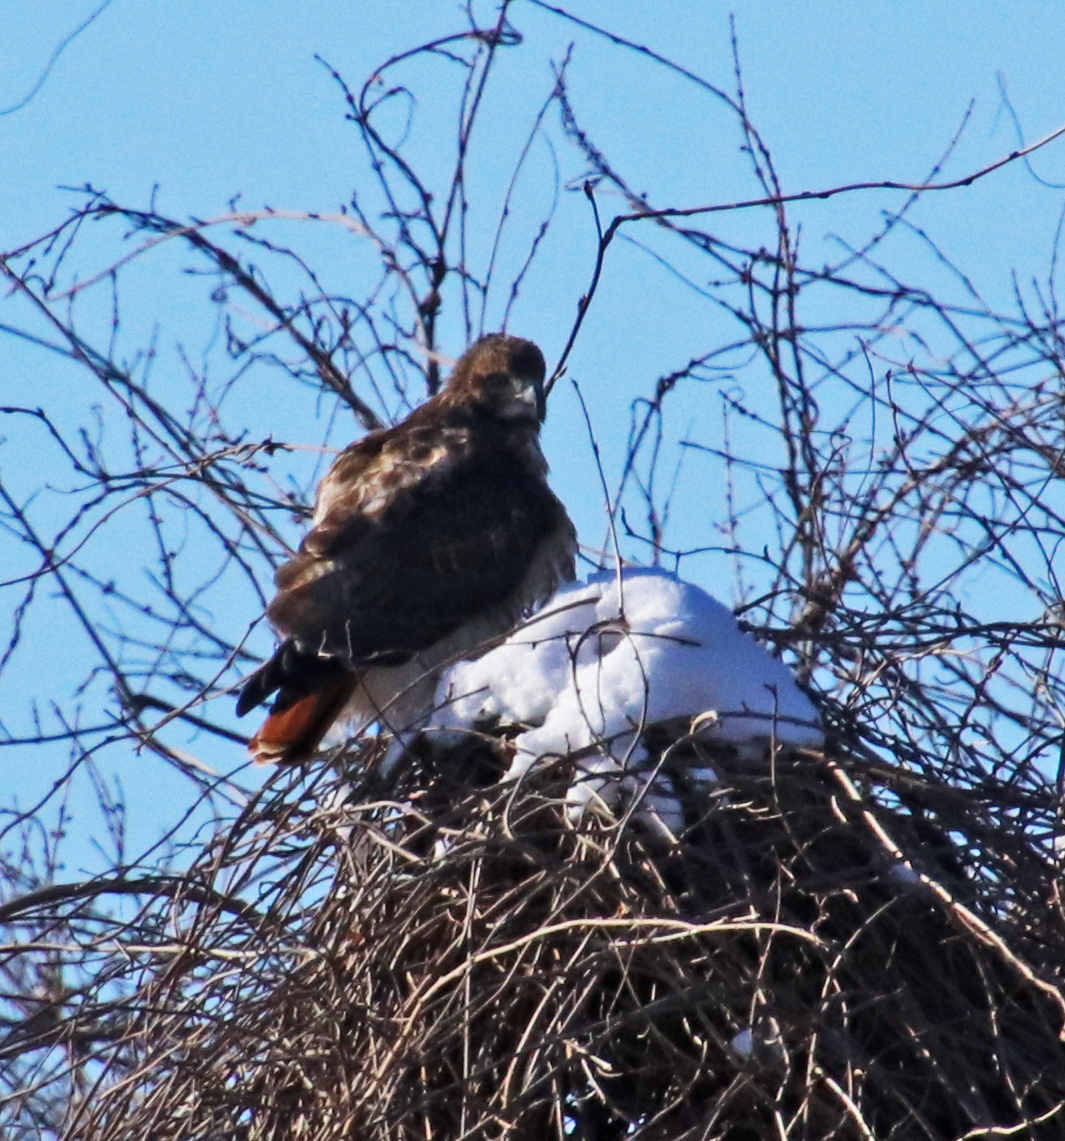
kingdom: Animalia
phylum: Chordata
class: Aves
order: Accipitriformes
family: Accipitridae
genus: Buteo
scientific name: Buteo jamaicensis
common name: Red-tailed hawk
